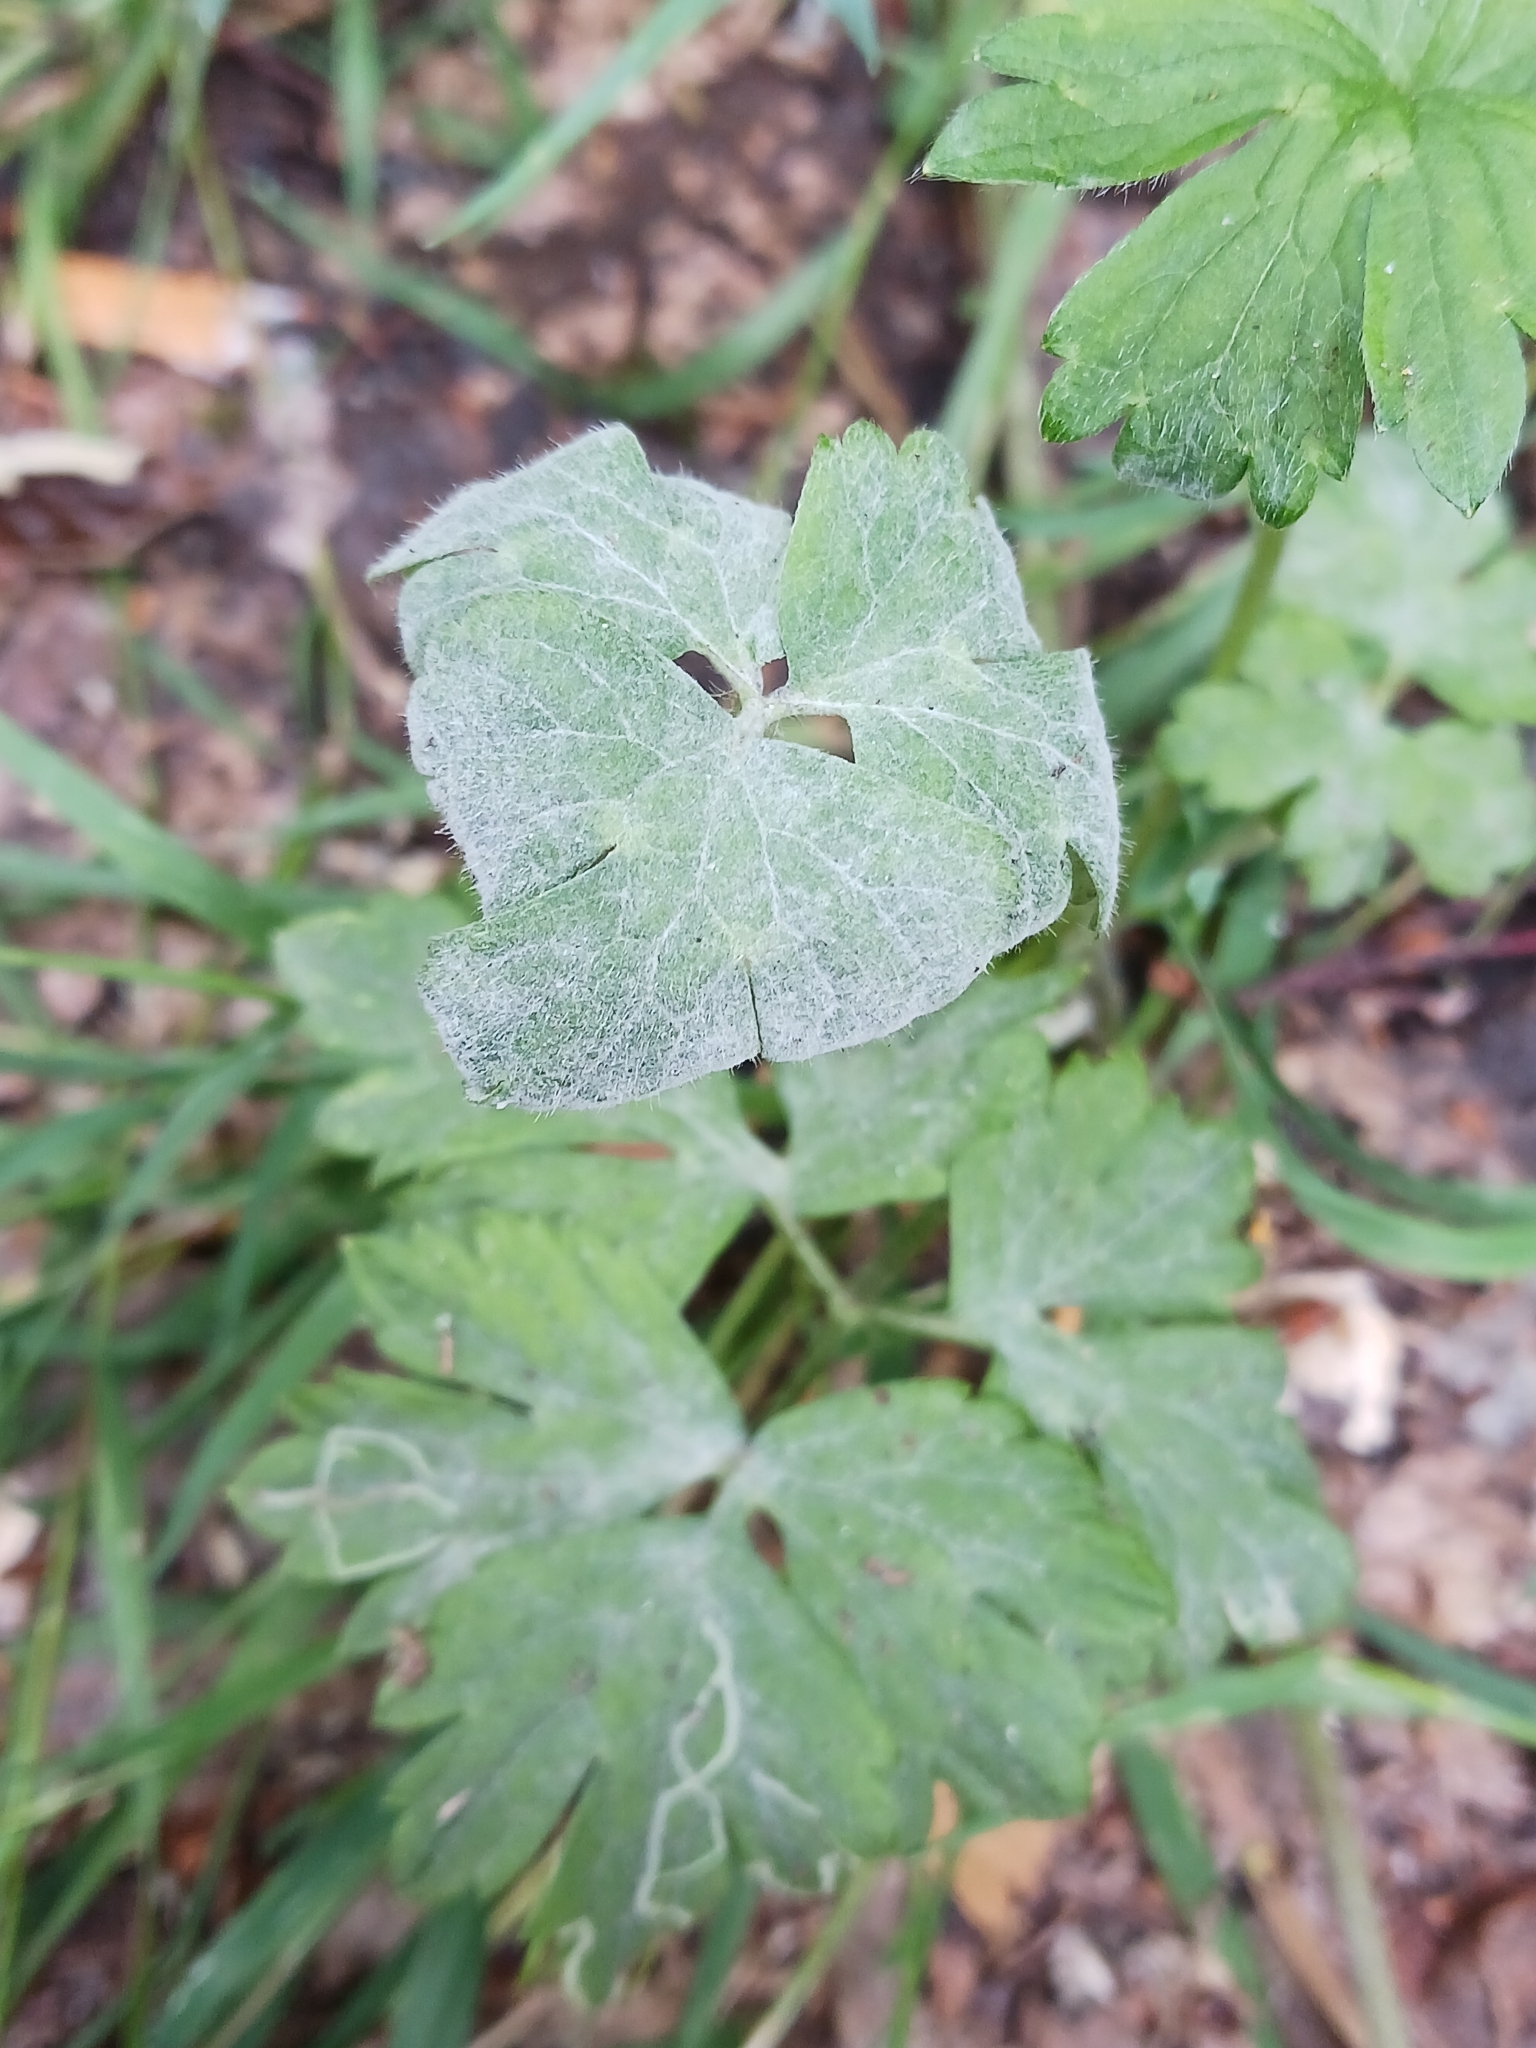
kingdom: Fungi
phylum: Ascomycota
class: Leotiomycetes
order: Helotiales
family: Erysiphaceae
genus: Erysiphe
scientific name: Erysiphe aquilegiae
